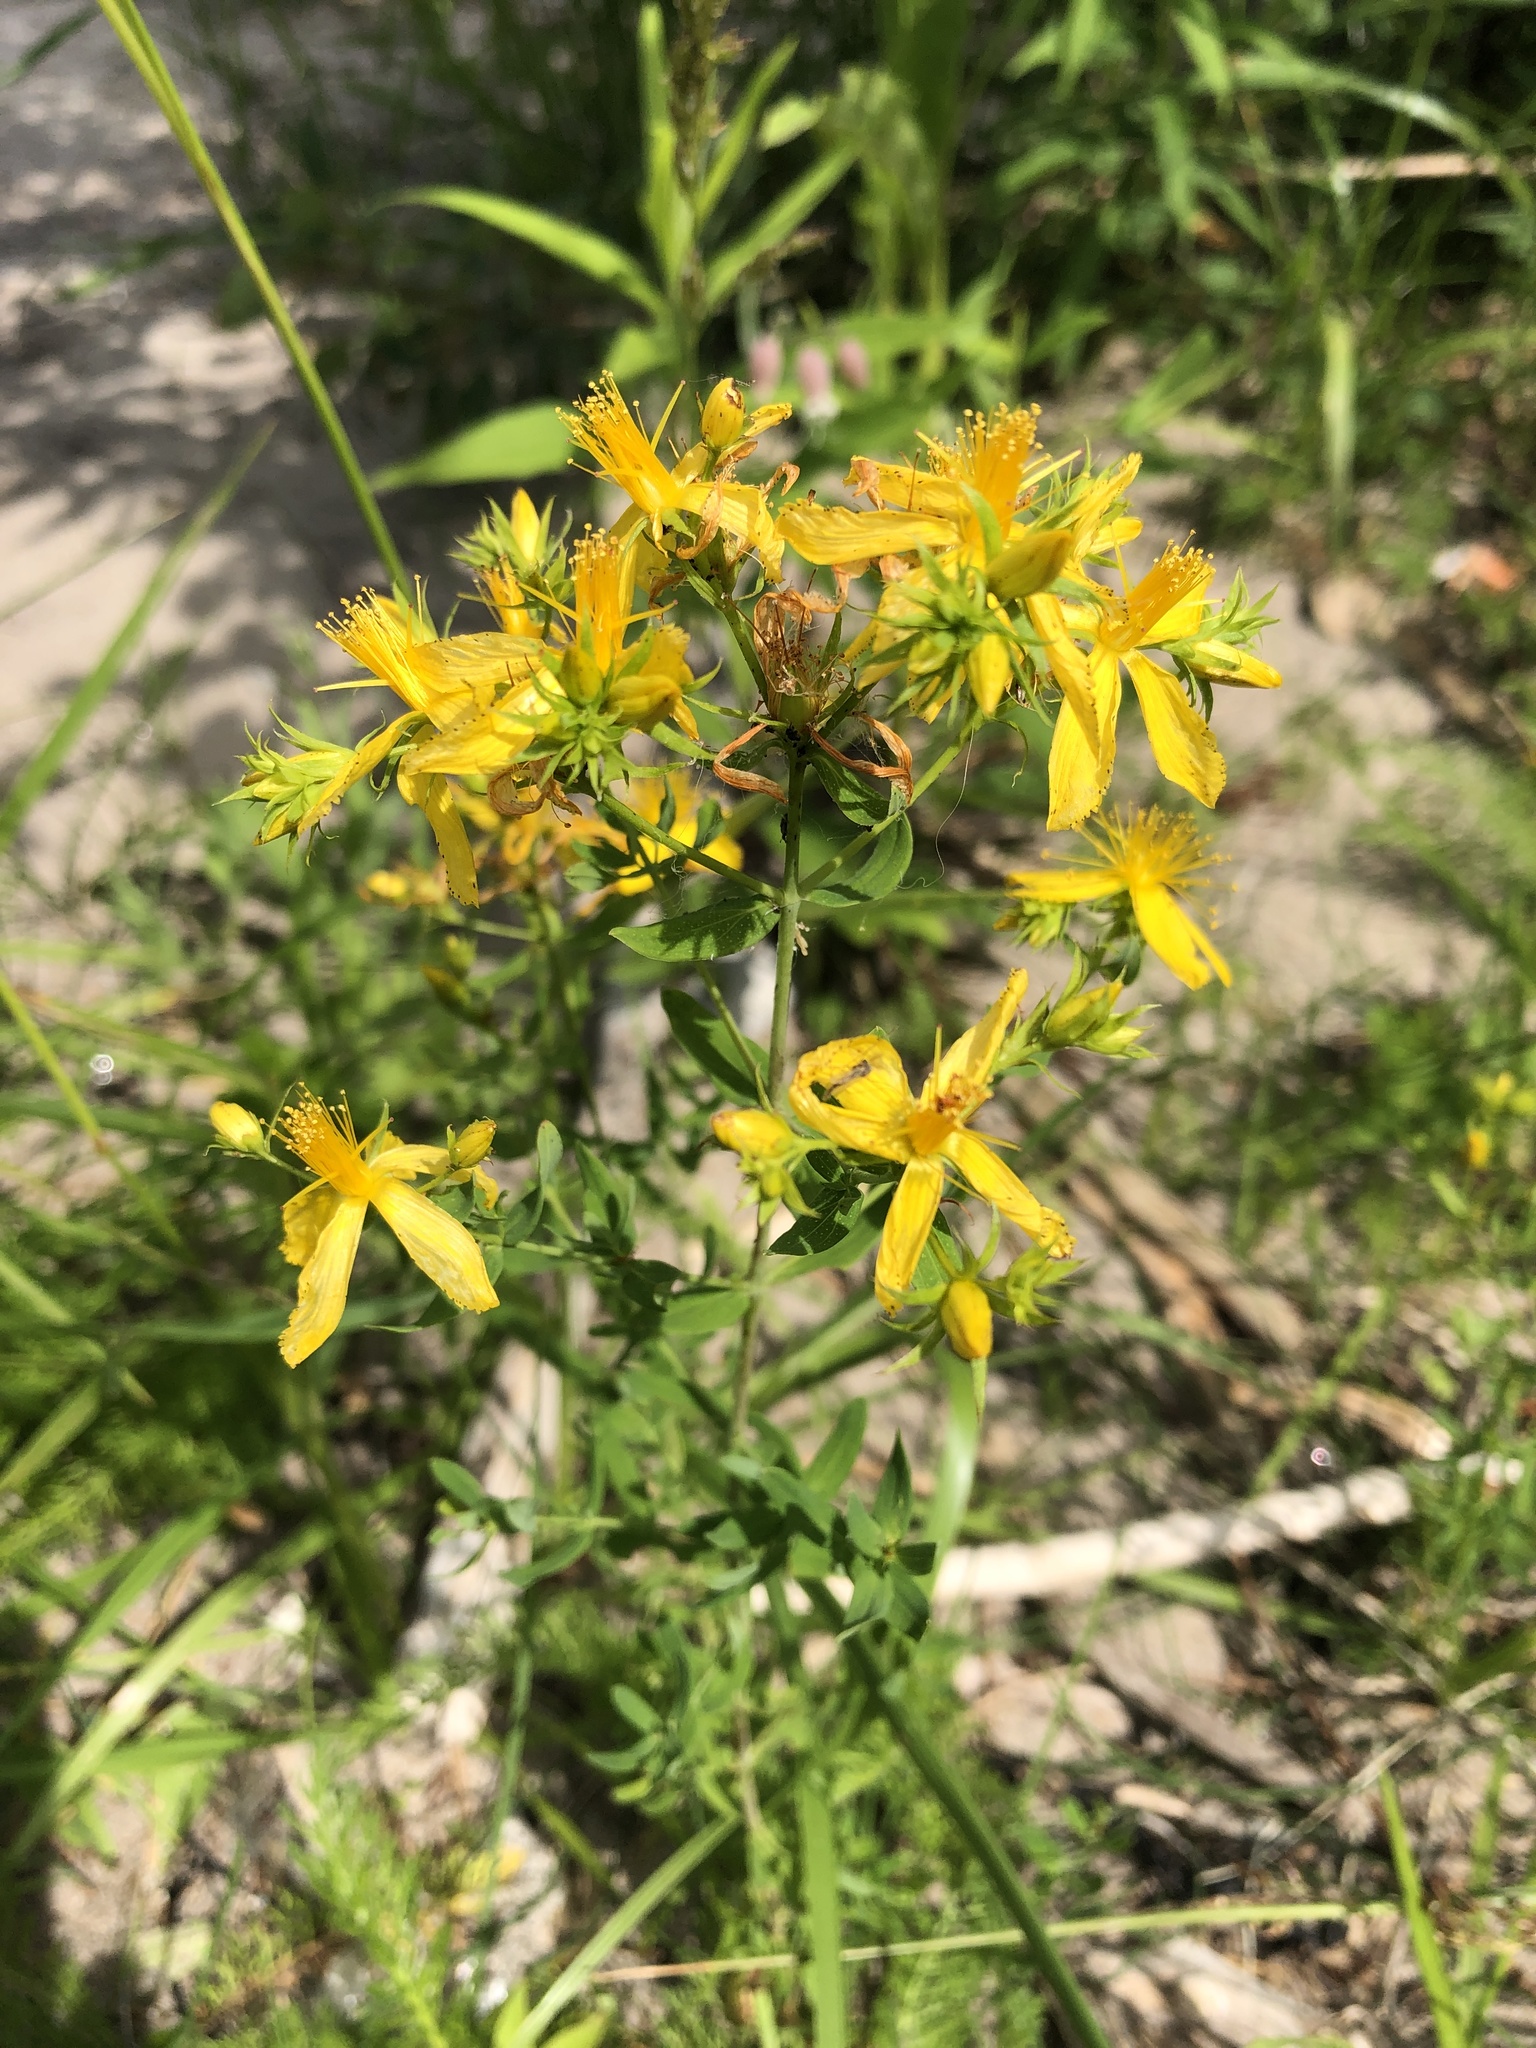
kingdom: Plantae
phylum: Tracheophyta
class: Magnoliopsida
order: Malpighiales
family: Hypericaceae
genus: Hypericum
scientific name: Hypericum perforatum
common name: Common st. johnswort
